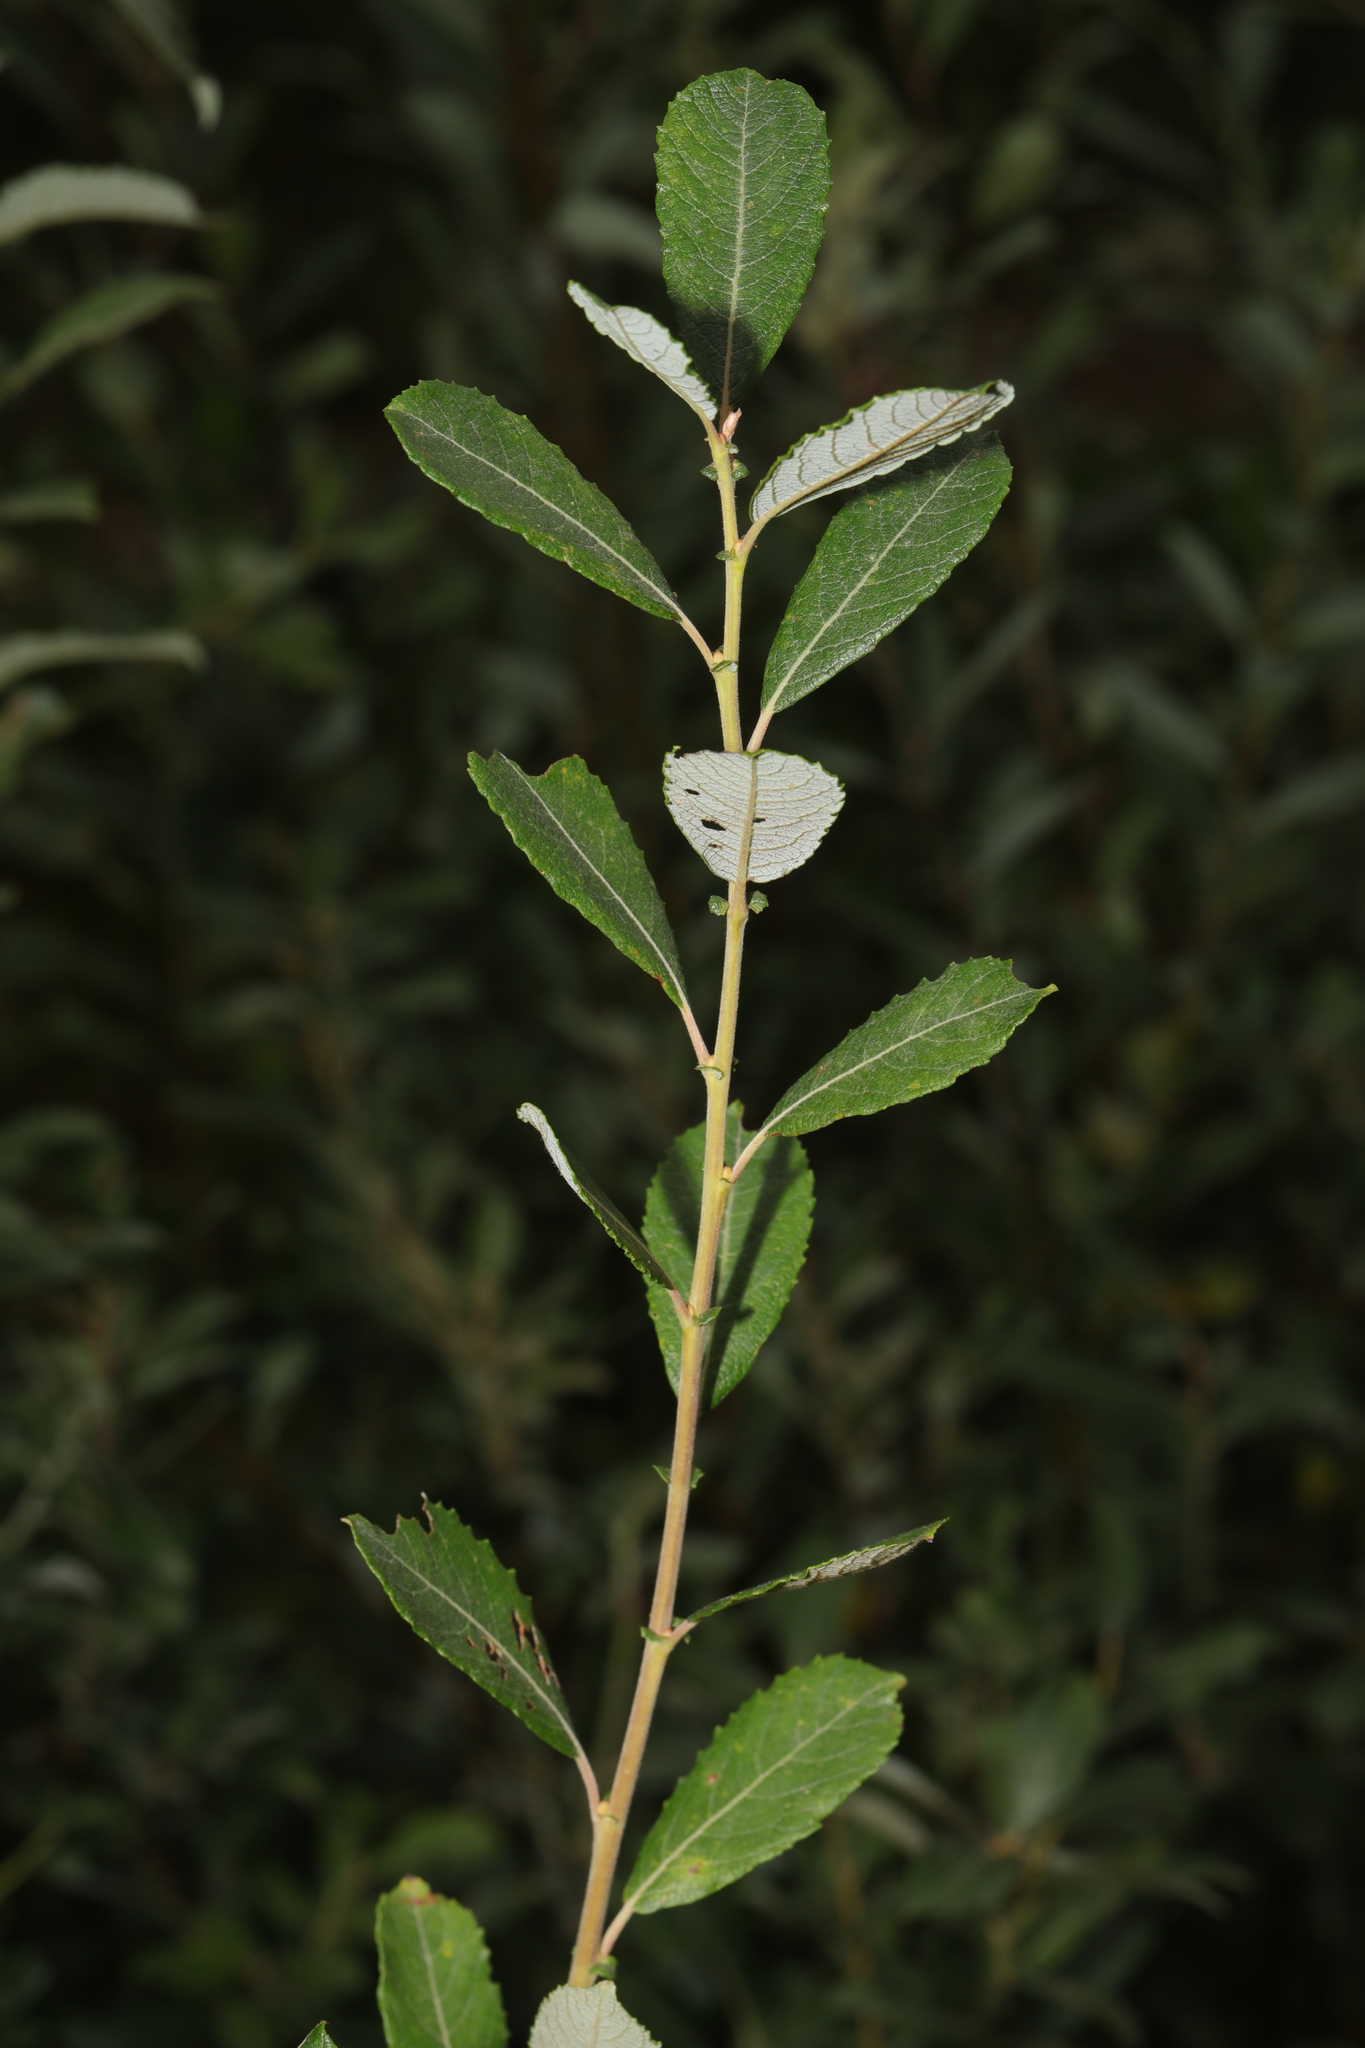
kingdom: Plantae
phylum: Tracheophyta
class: Magnoliopsida
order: Malpighiales
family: Salicaceae
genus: Salix
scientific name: Salix atrocinerea
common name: Rusty willow
